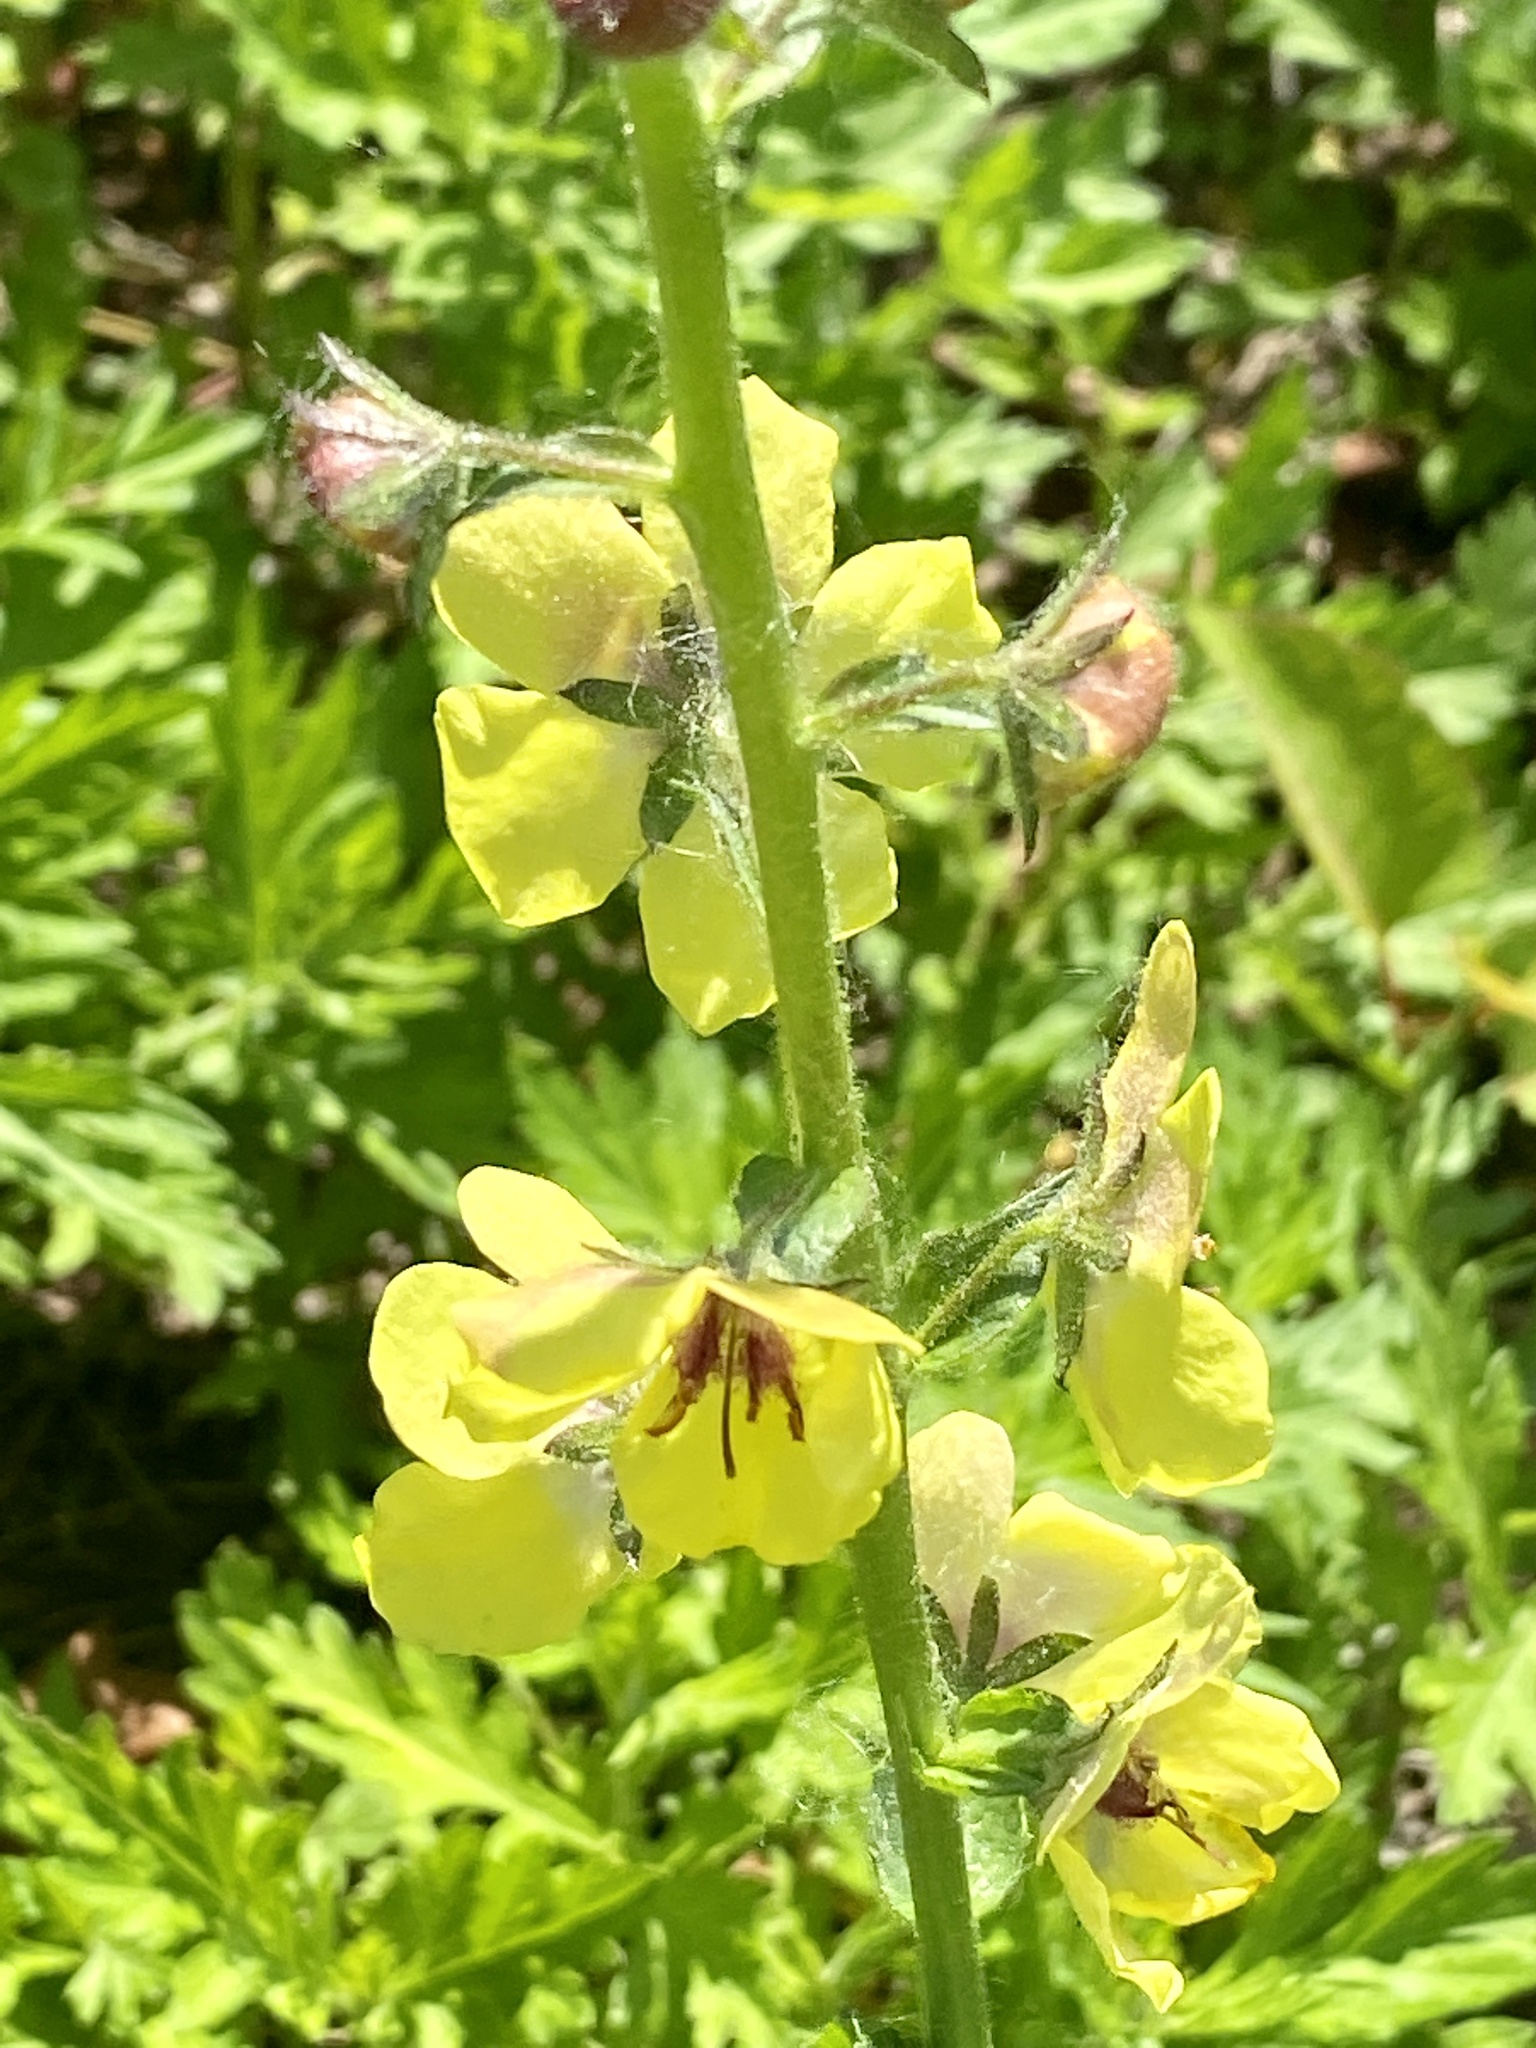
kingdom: Plantae
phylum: Tracheophyta
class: Magnoliopsida
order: Lamiales
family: Scrophulariaceae
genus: Verbascum
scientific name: Verbascum blattaria
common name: Moth mullein
